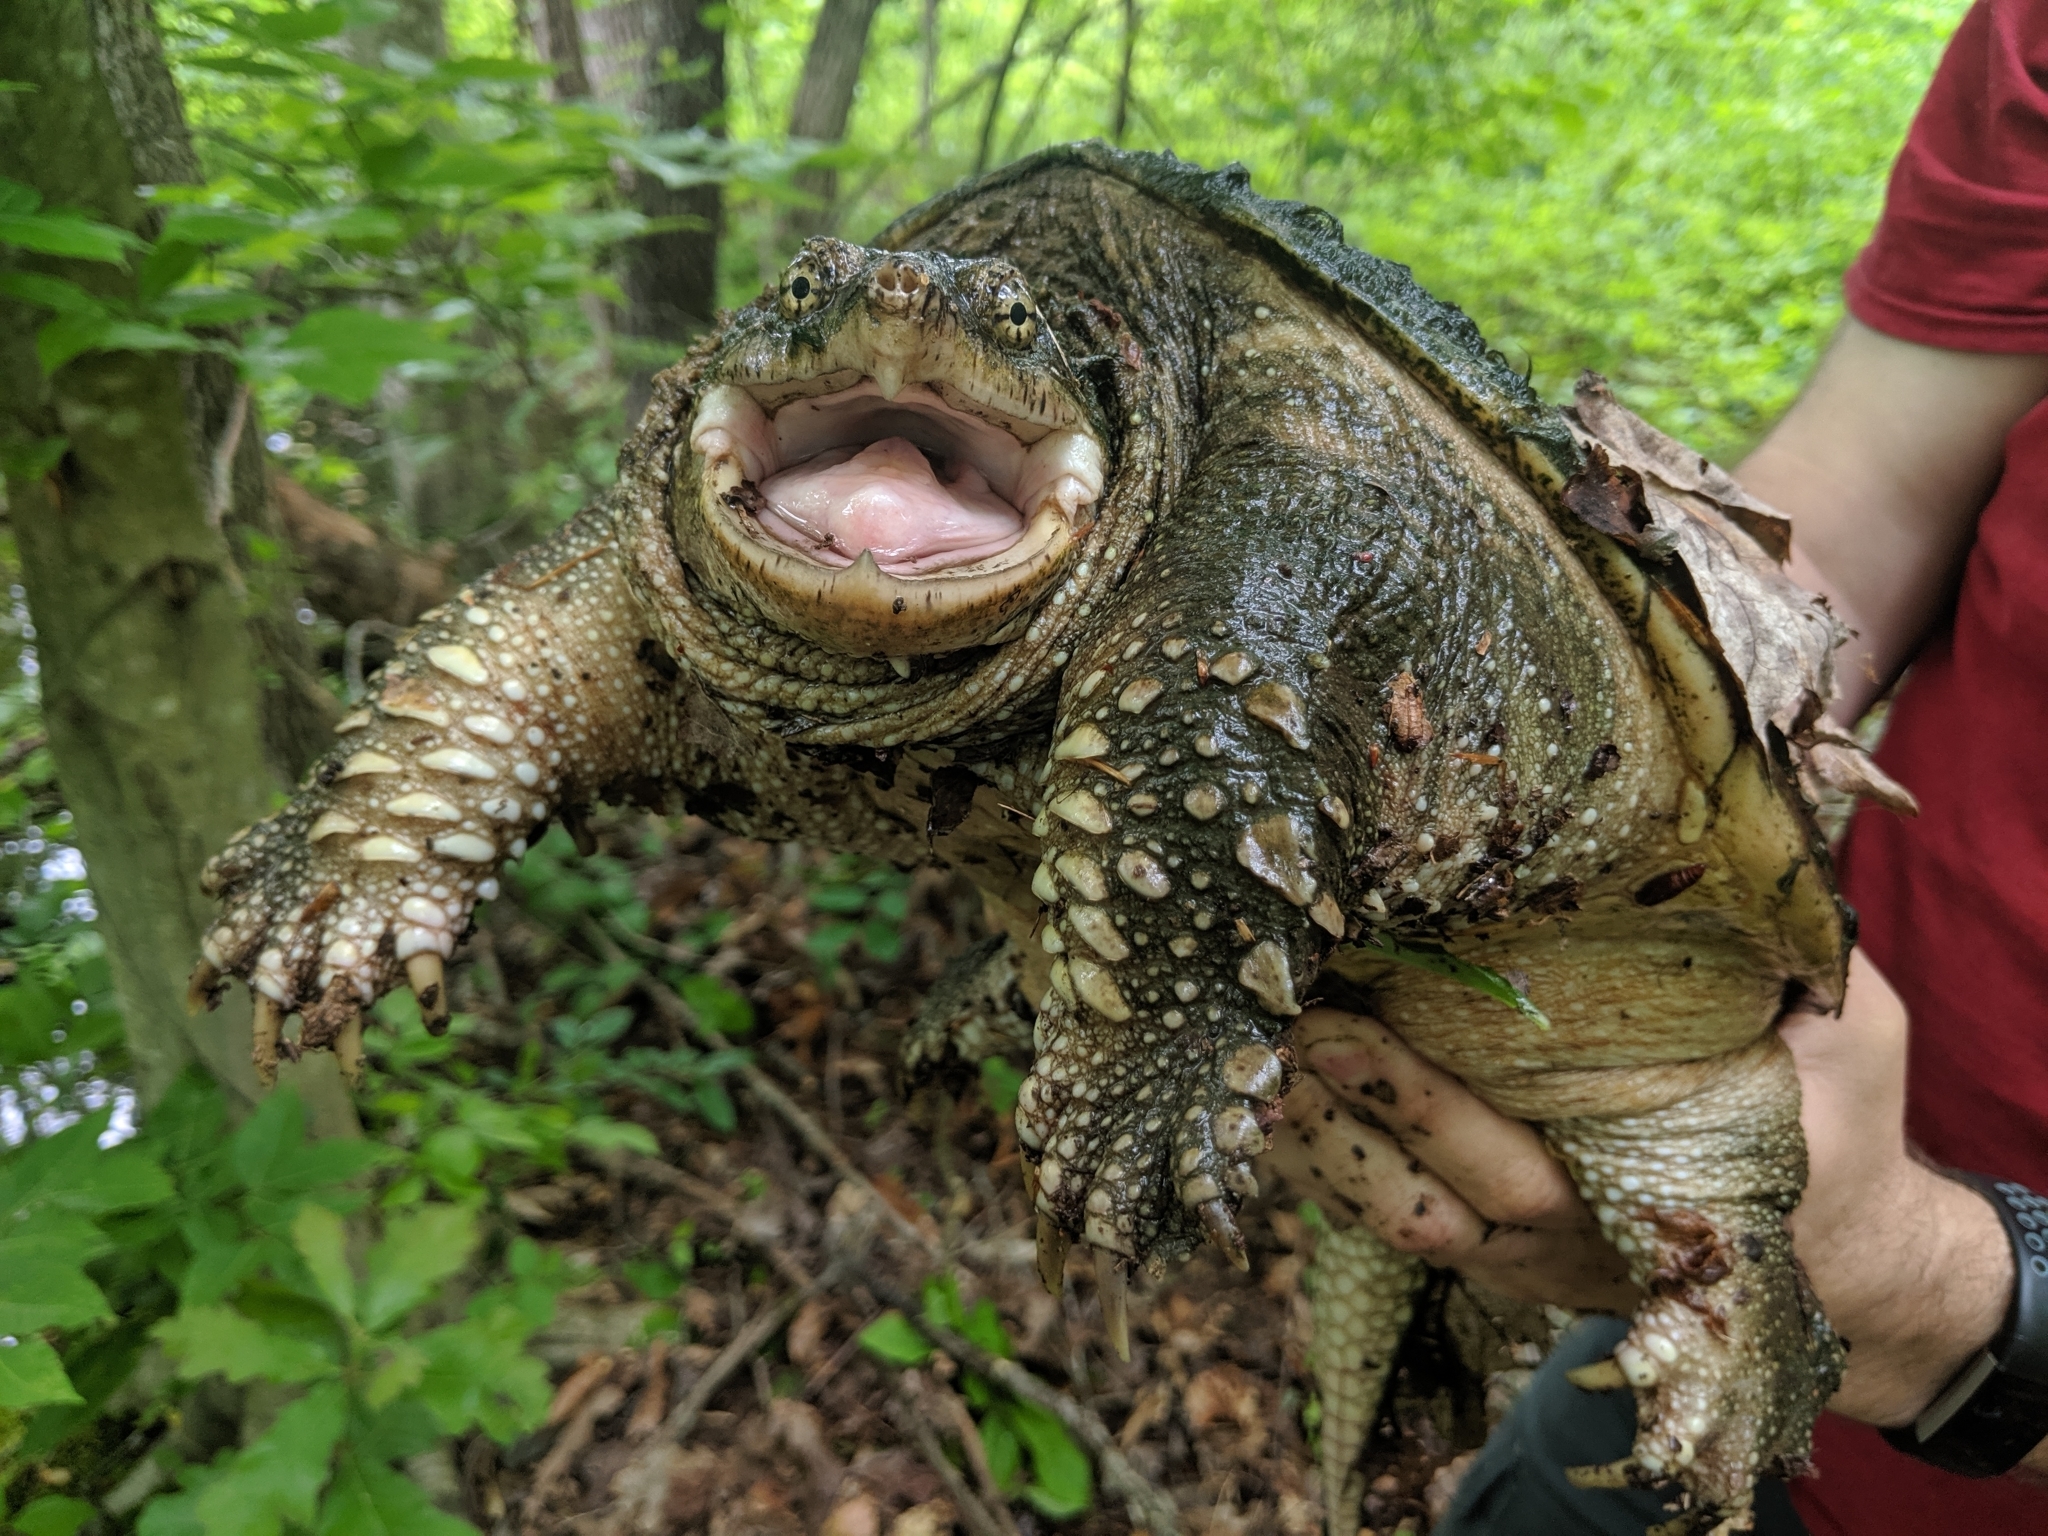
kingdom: Animalia
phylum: Chordata
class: Testudines
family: Chelydridae
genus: Chelydra
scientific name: Chelydra serpentina
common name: Common snapping turtle
